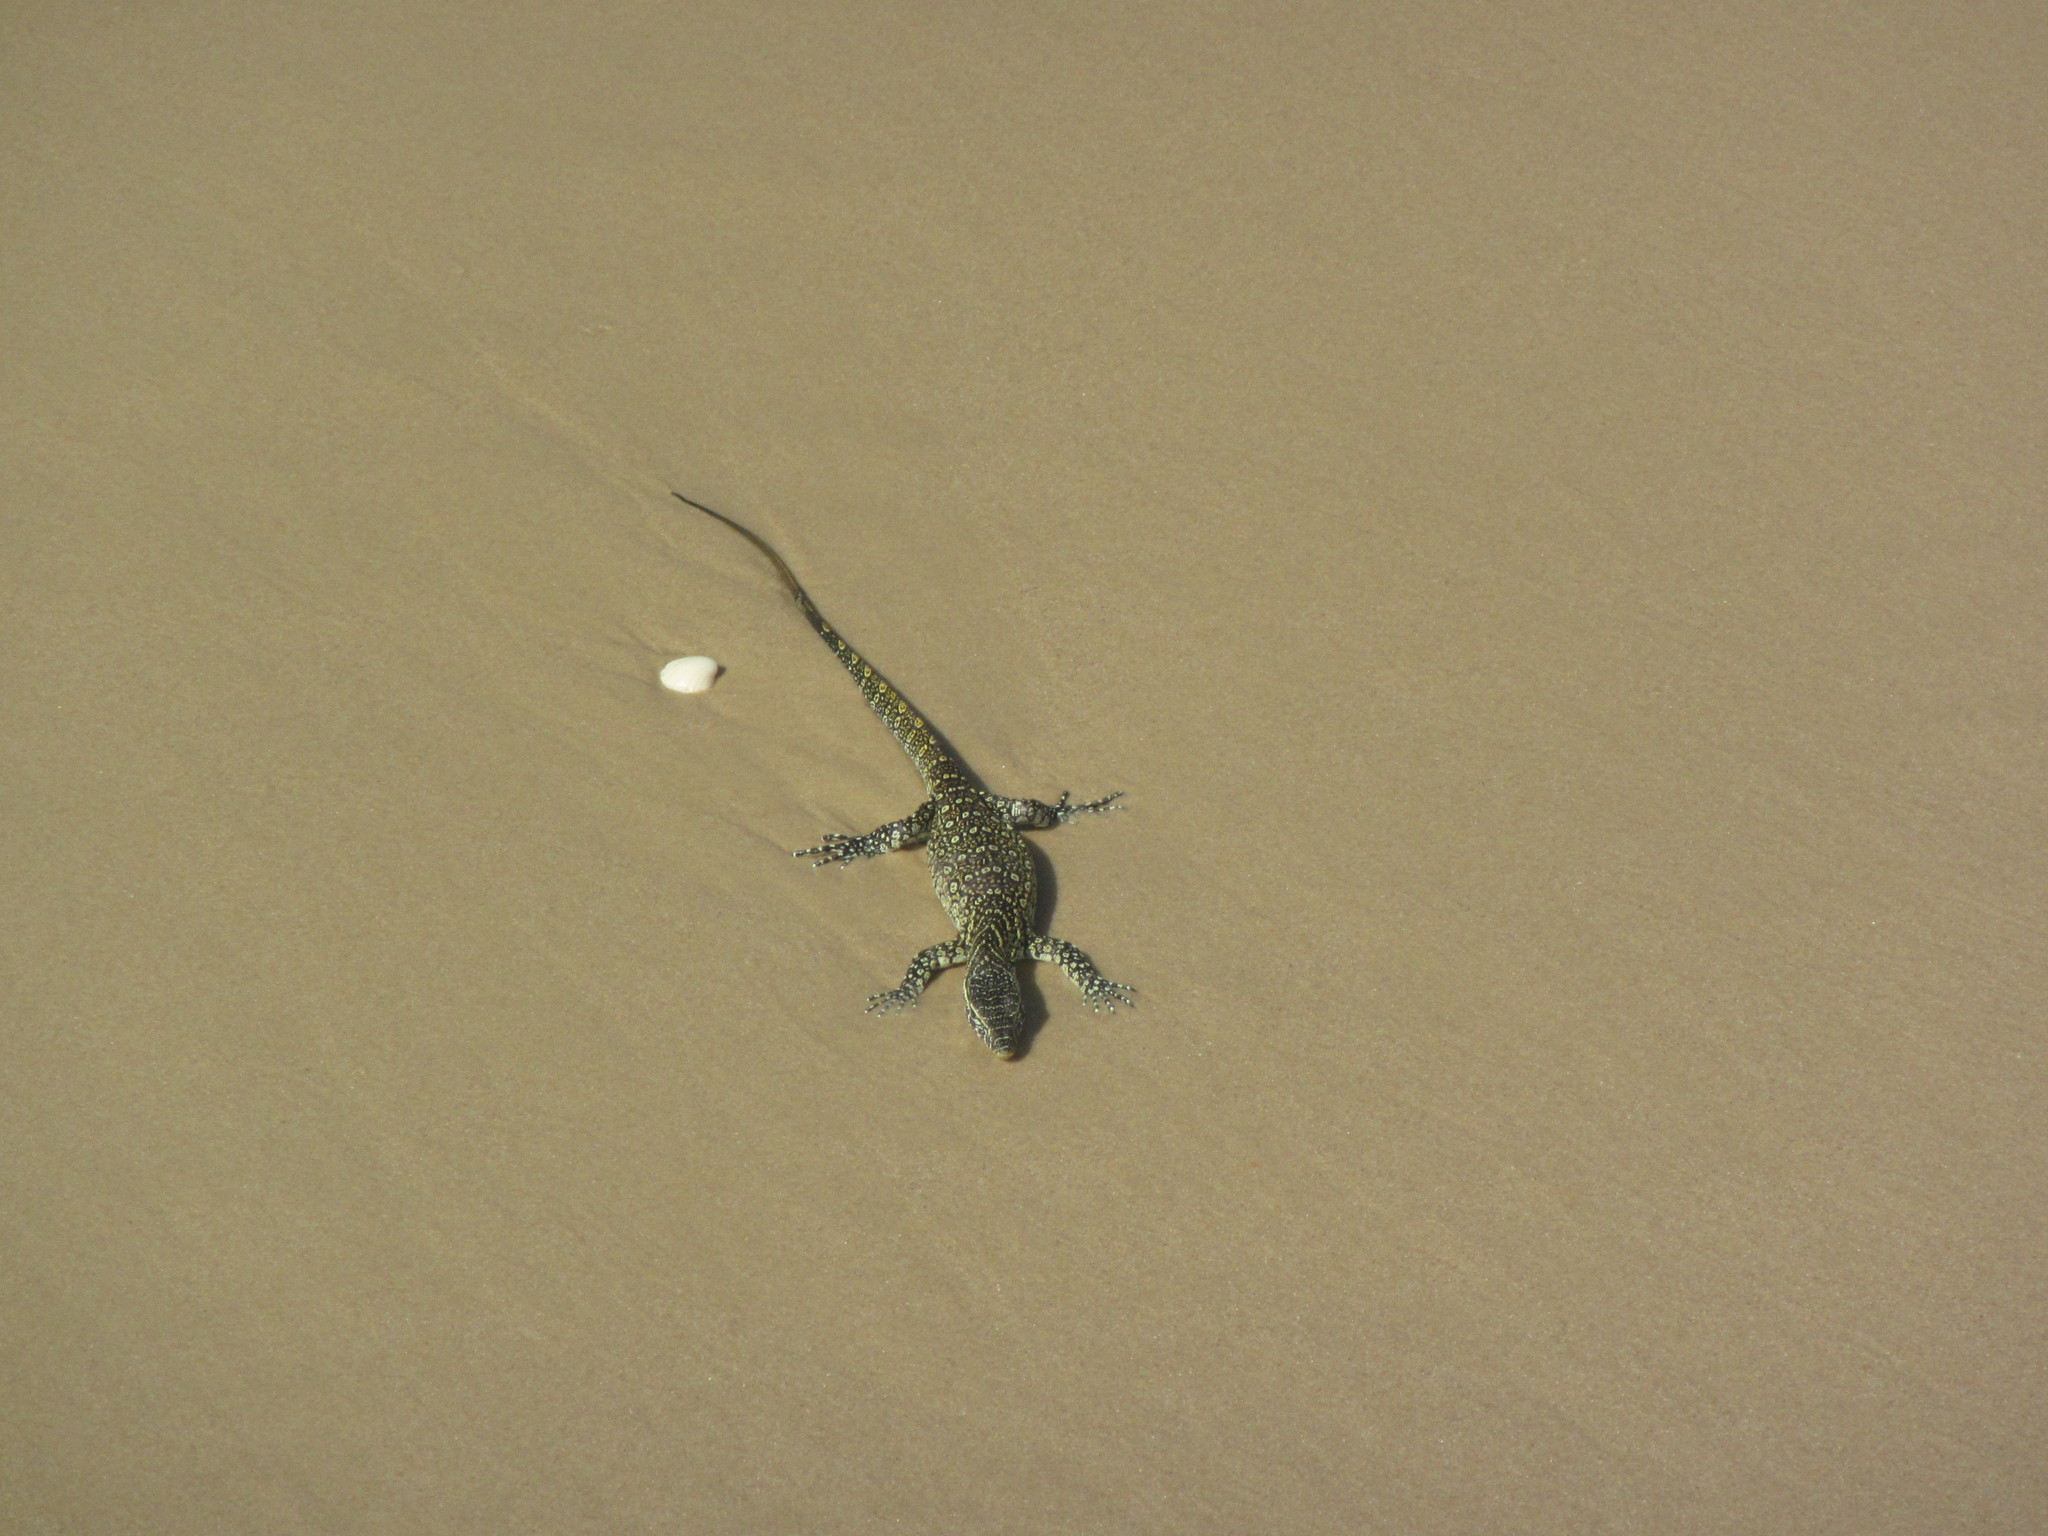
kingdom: Animalia
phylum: Chordata
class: Squamata
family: Varanidae
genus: Varanus
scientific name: Varanus niloticus
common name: Nile monitor
